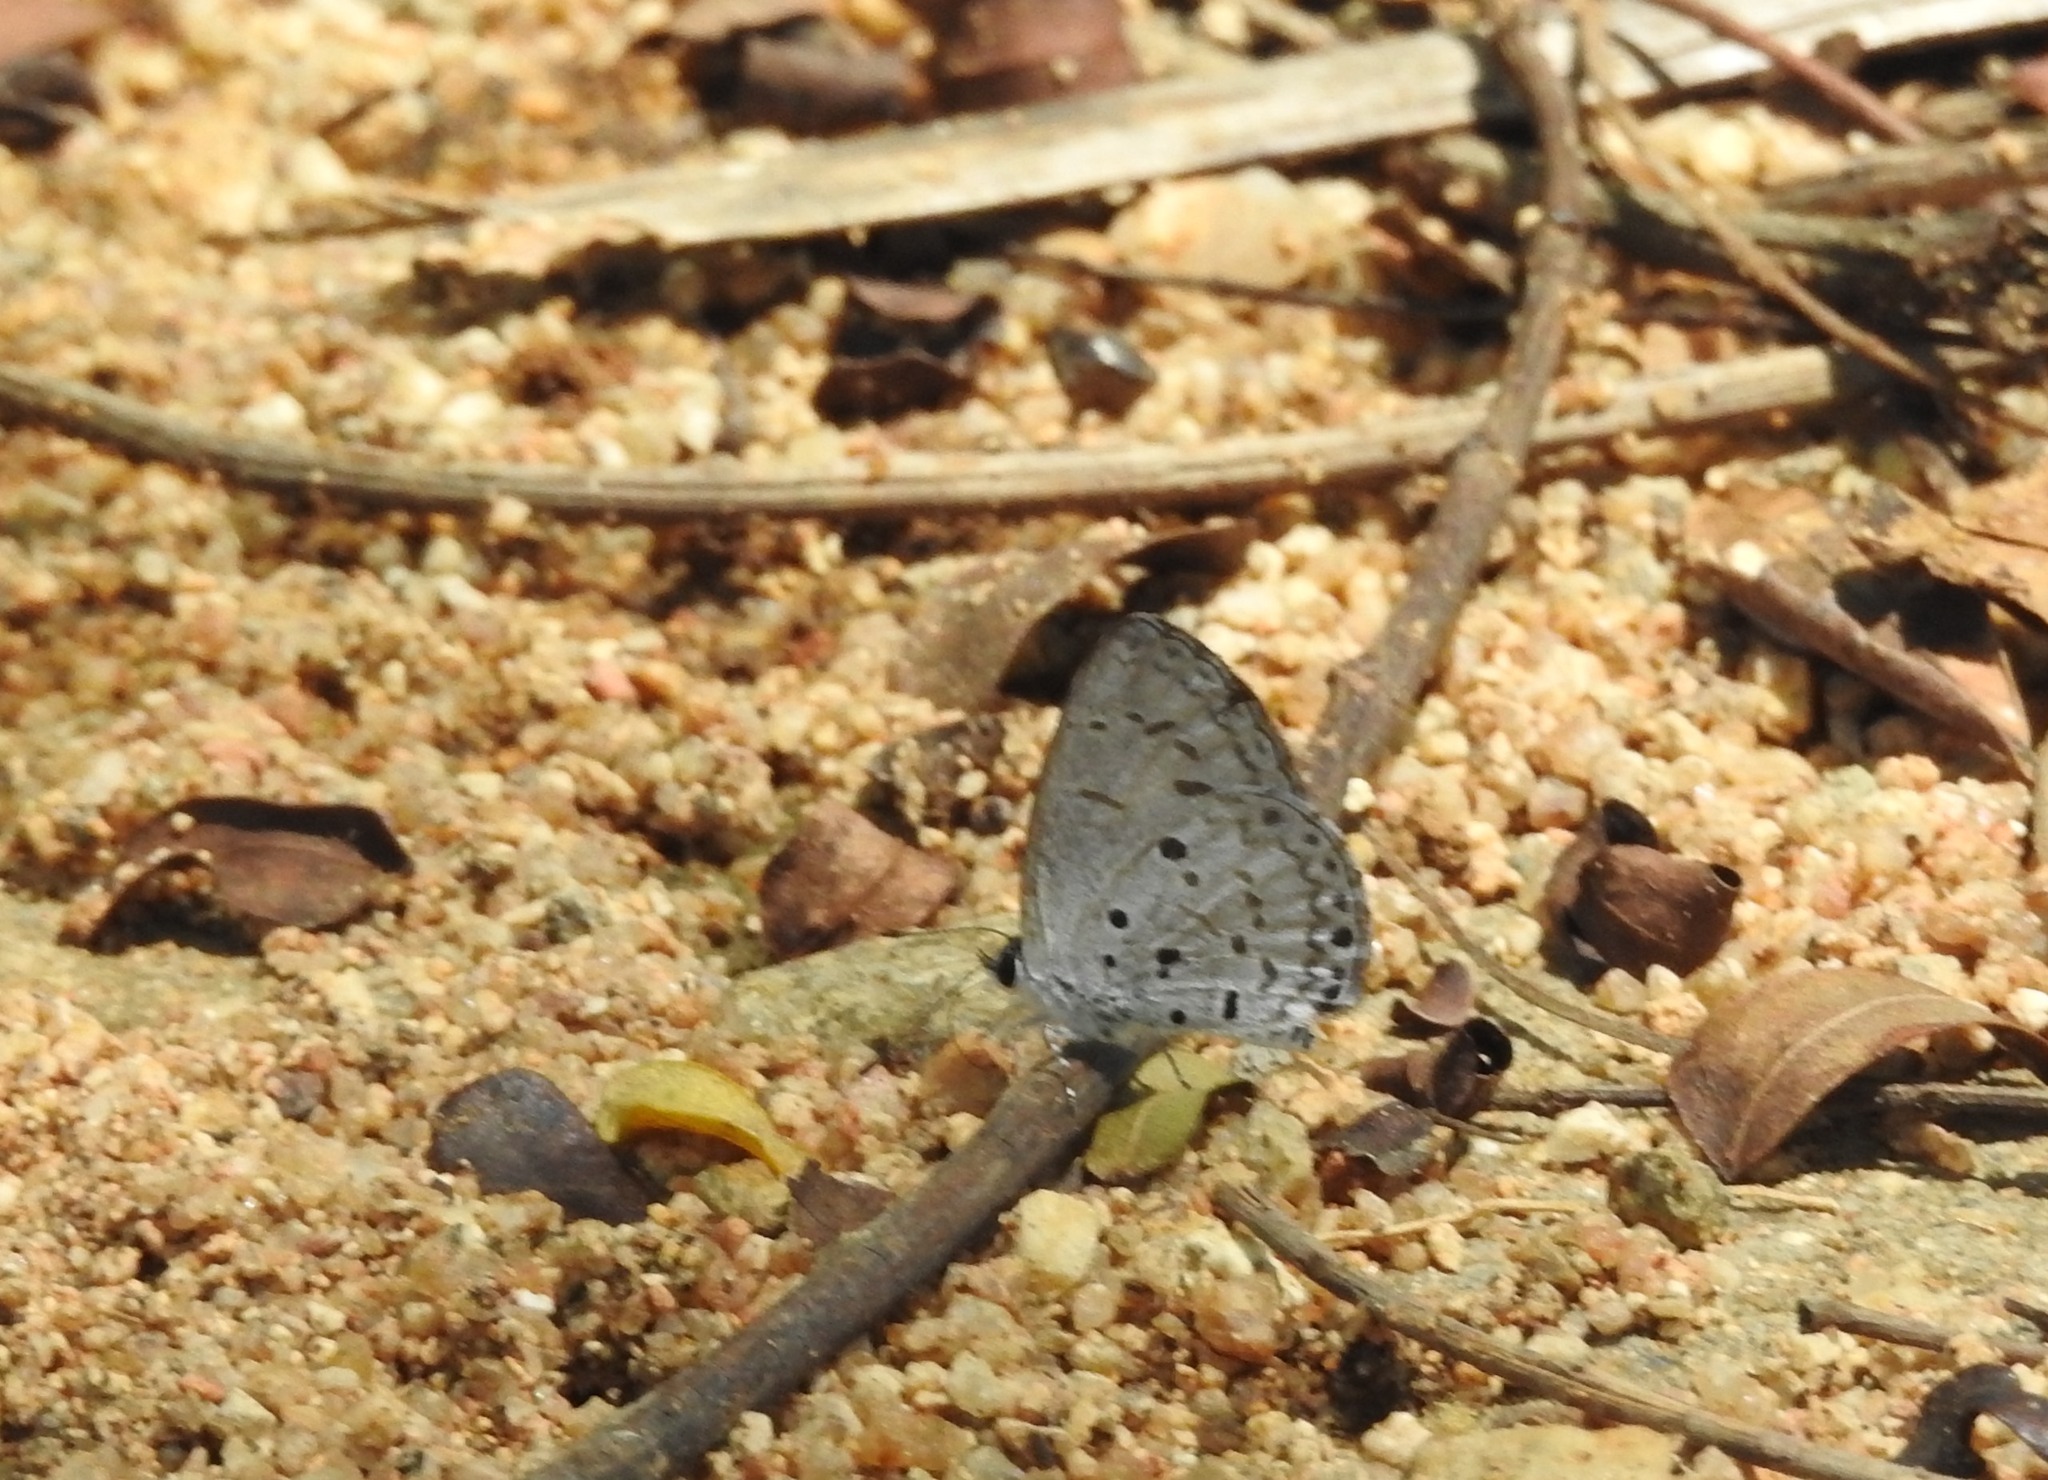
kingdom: Animalia
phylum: Arthropoda
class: Insecta
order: Lepidoptera
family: Lycaenidae
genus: Acytolepis
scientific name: Acytolepis puspa
